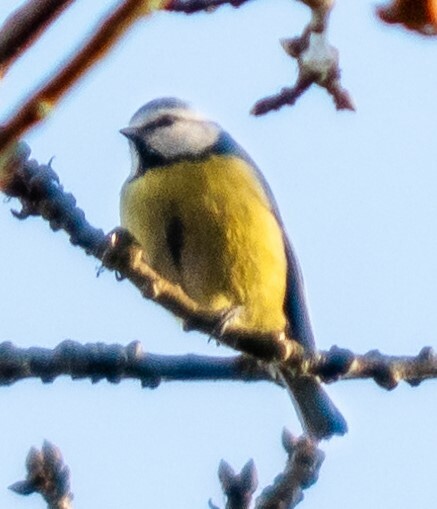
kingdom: Animalia
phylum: Chordata
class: Aves
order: Passeriformes
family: Paridae
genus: Cyanistes
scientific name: Cyanistes caeruleus
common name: Eurasian blue tit
